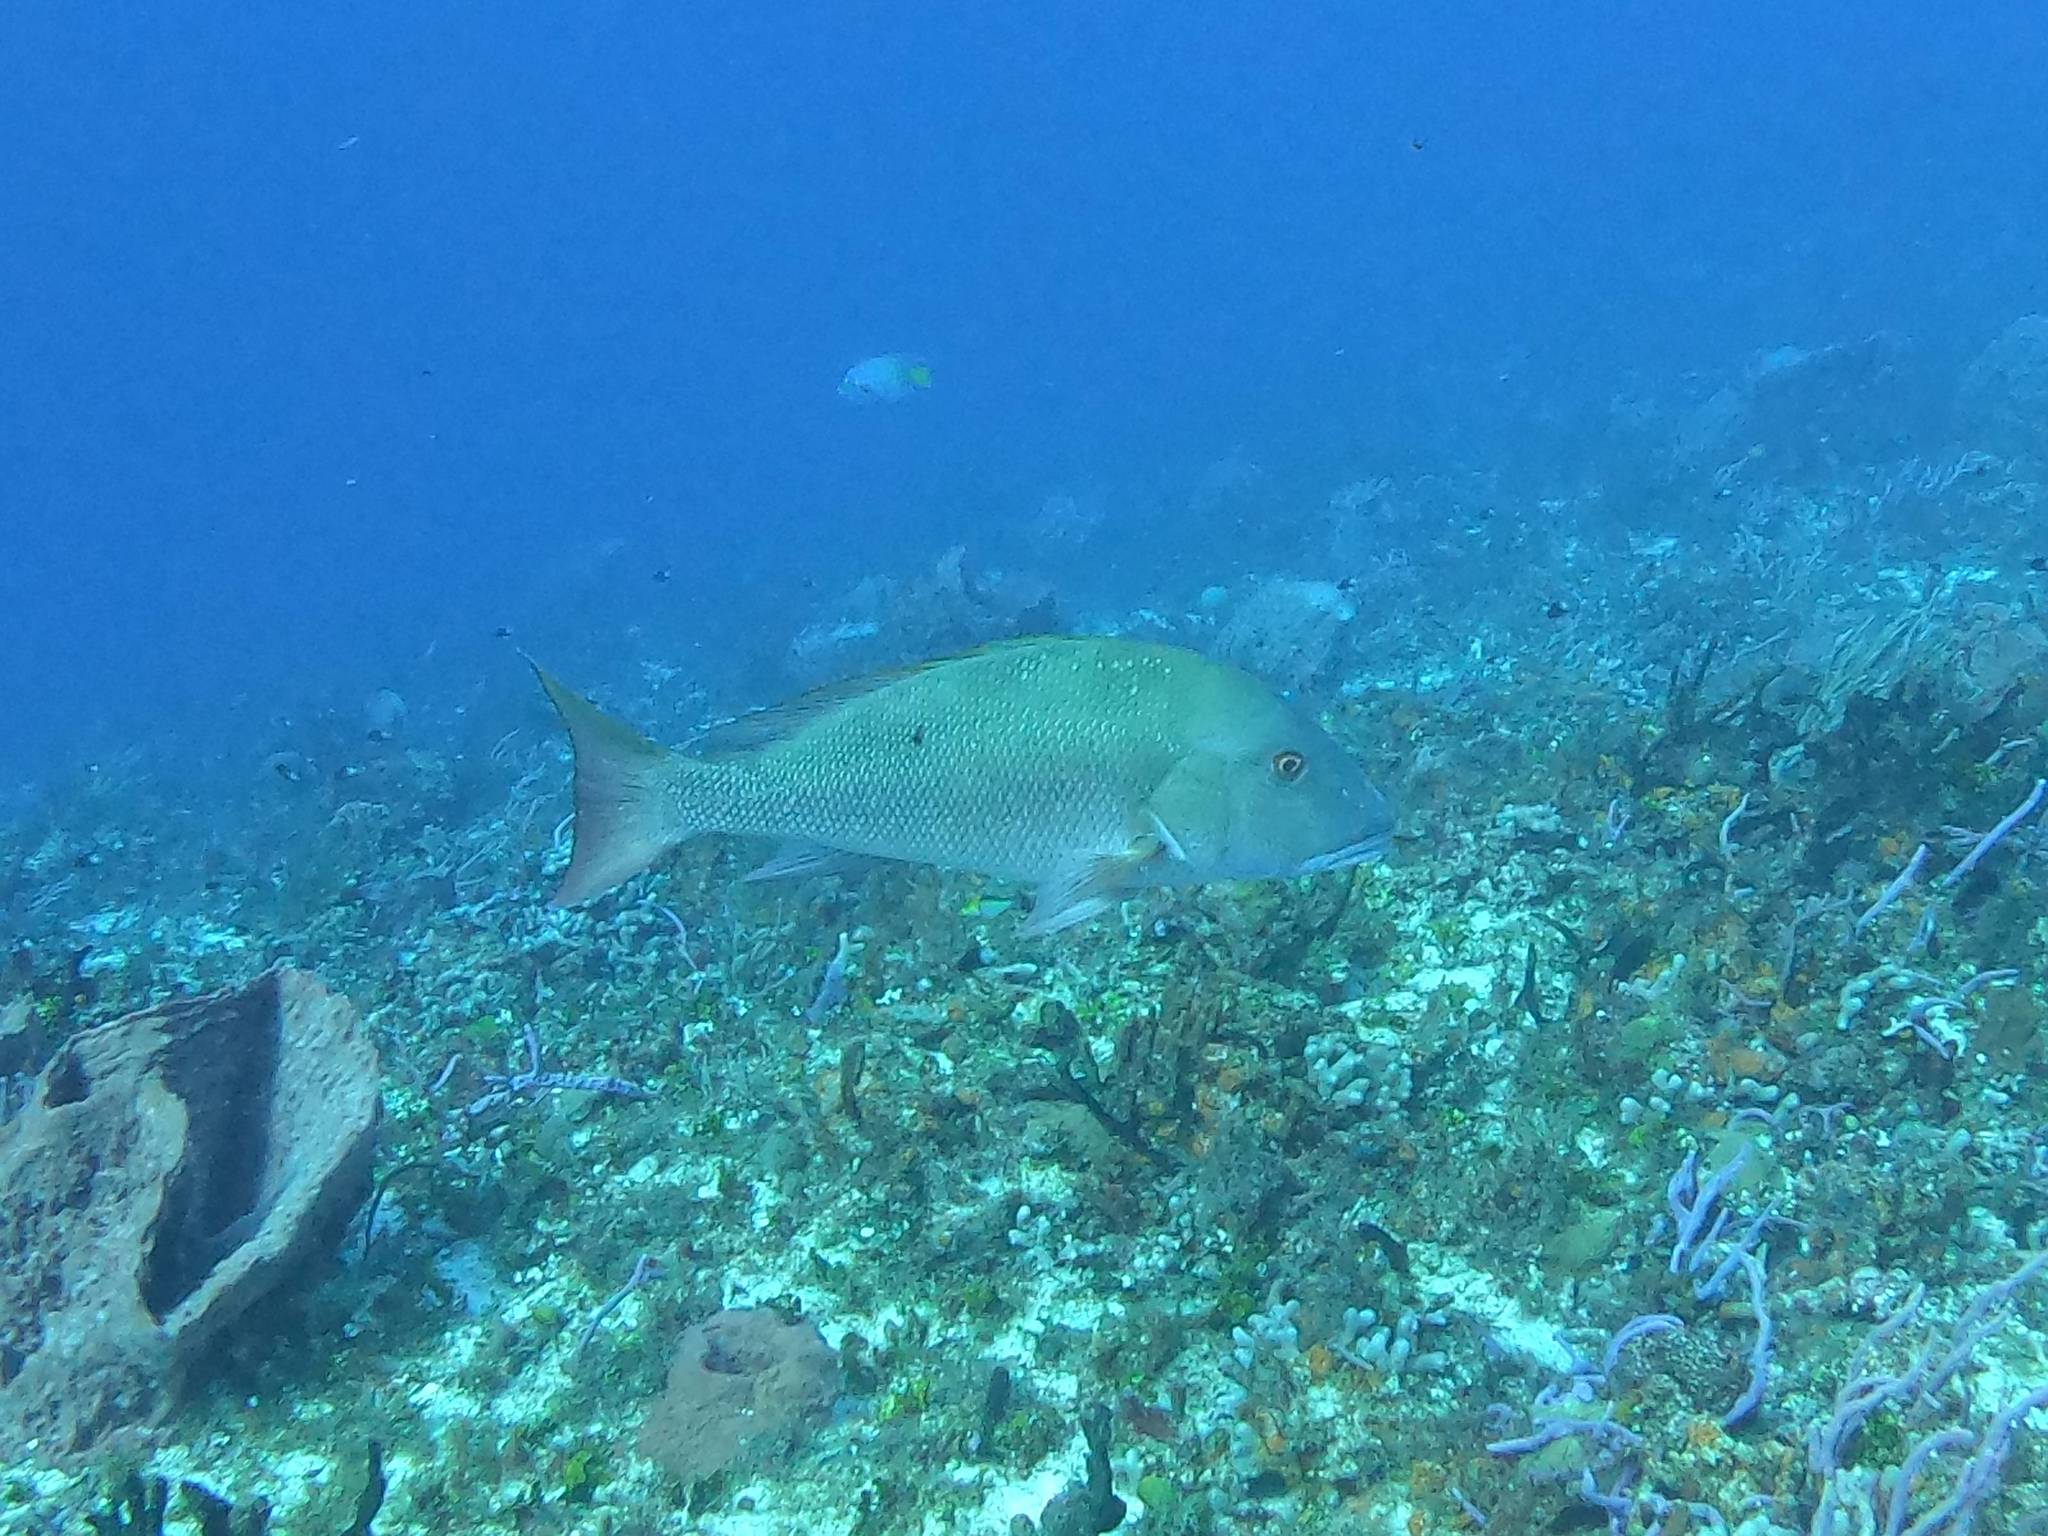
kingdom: Animalia
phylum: Chordata
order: Perciformes
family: Lutjanidae
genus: Lutjanus
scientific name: Lutjanus analis
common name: Mutton snapper
